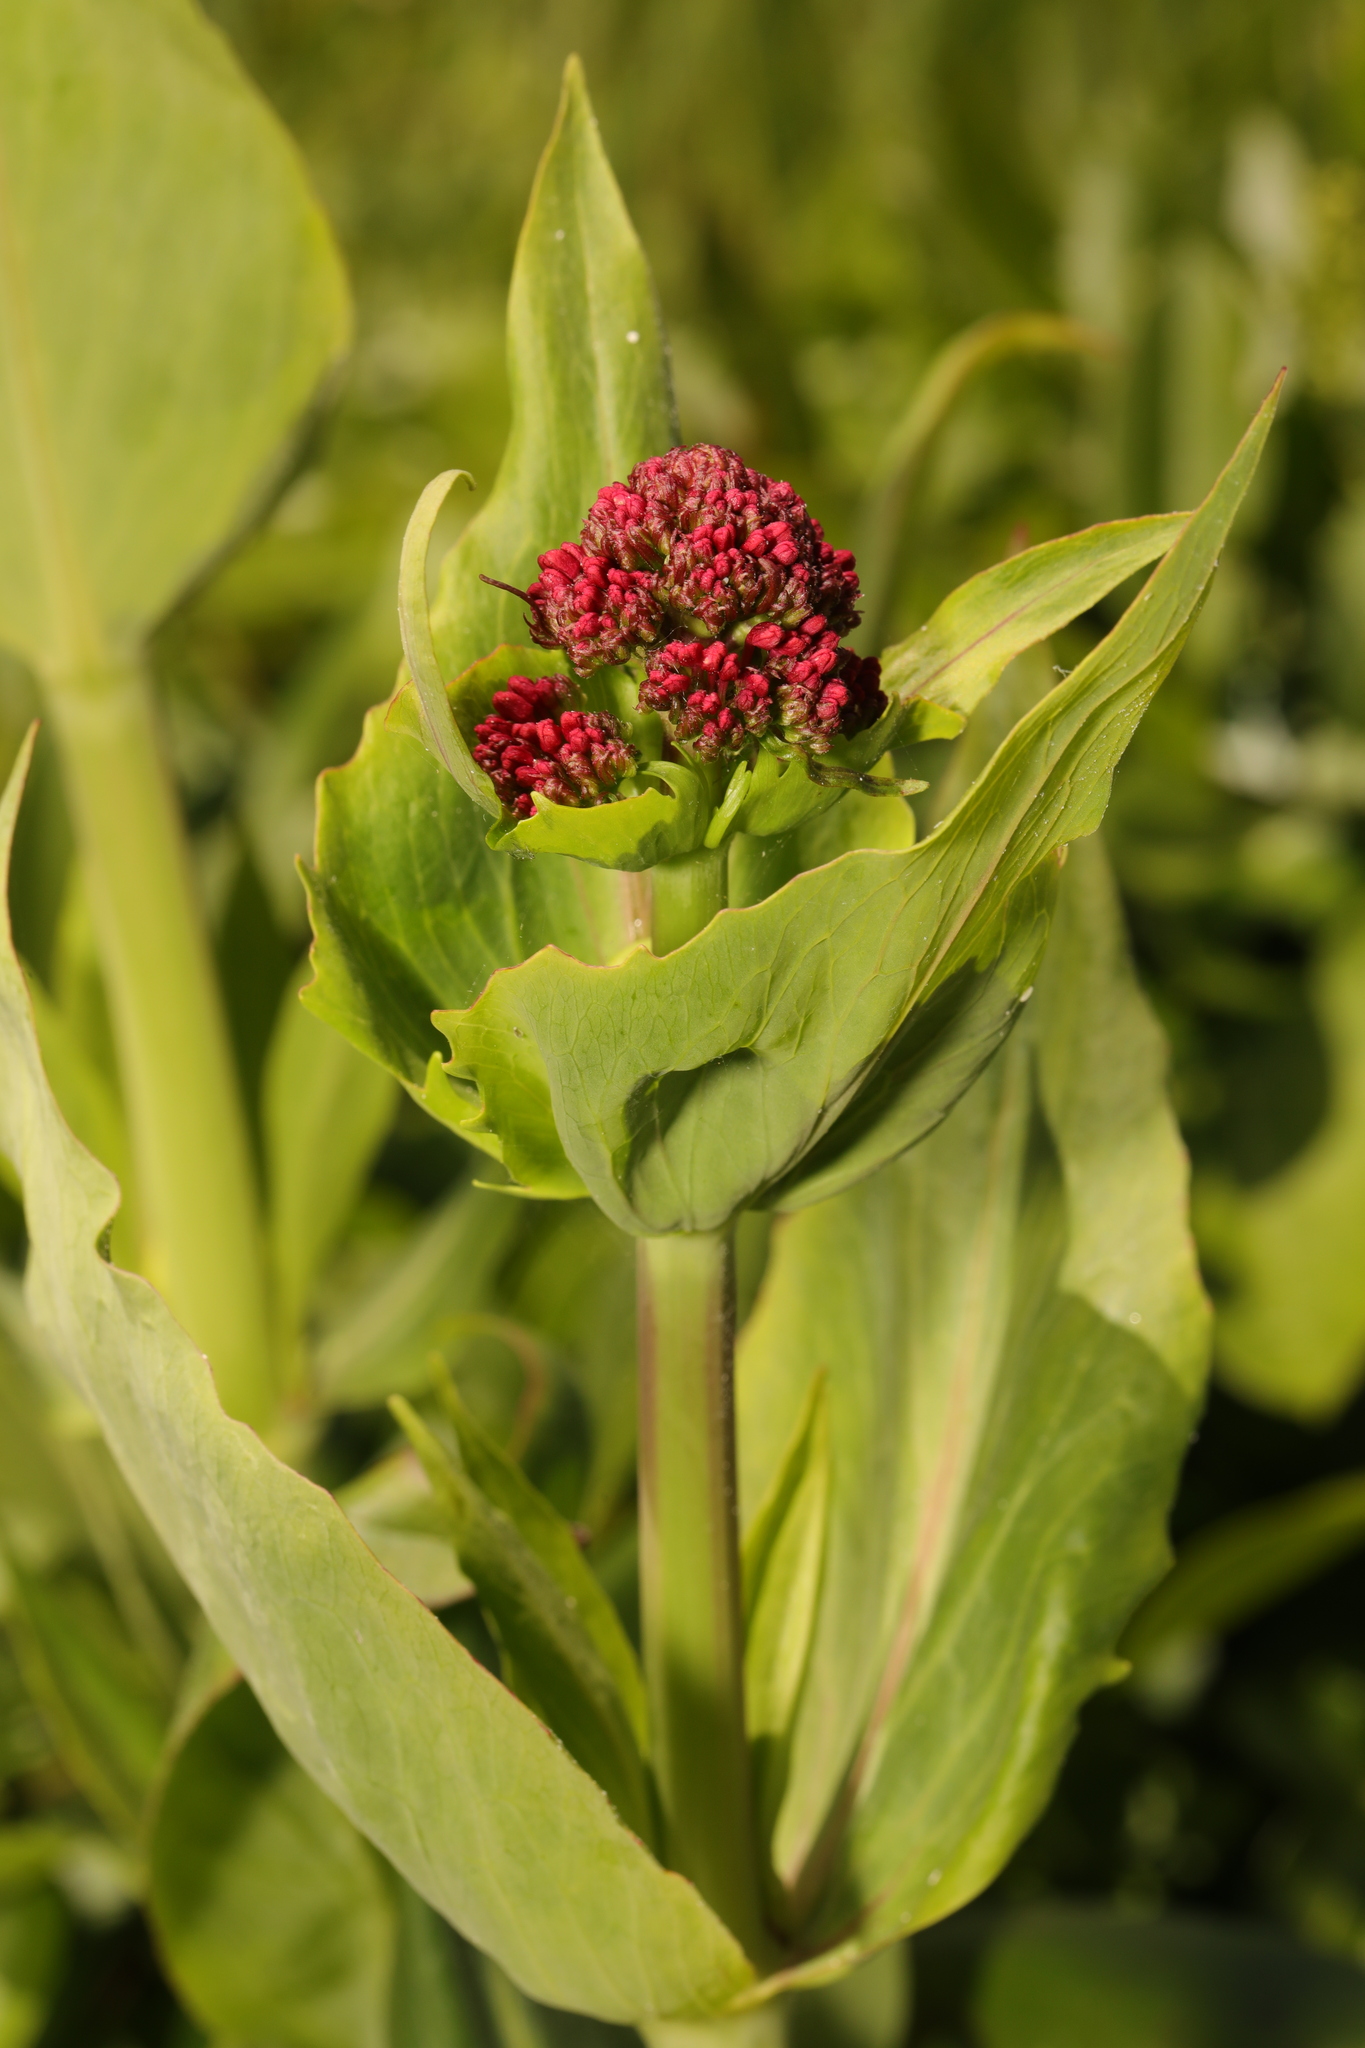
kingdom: Plantae
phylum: Tracheophyta
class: Magnoliopsida
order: Dipsacales
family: Caprifoliaceae
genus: Centranthus
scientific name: Centranthus ruber
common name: Red valerian
